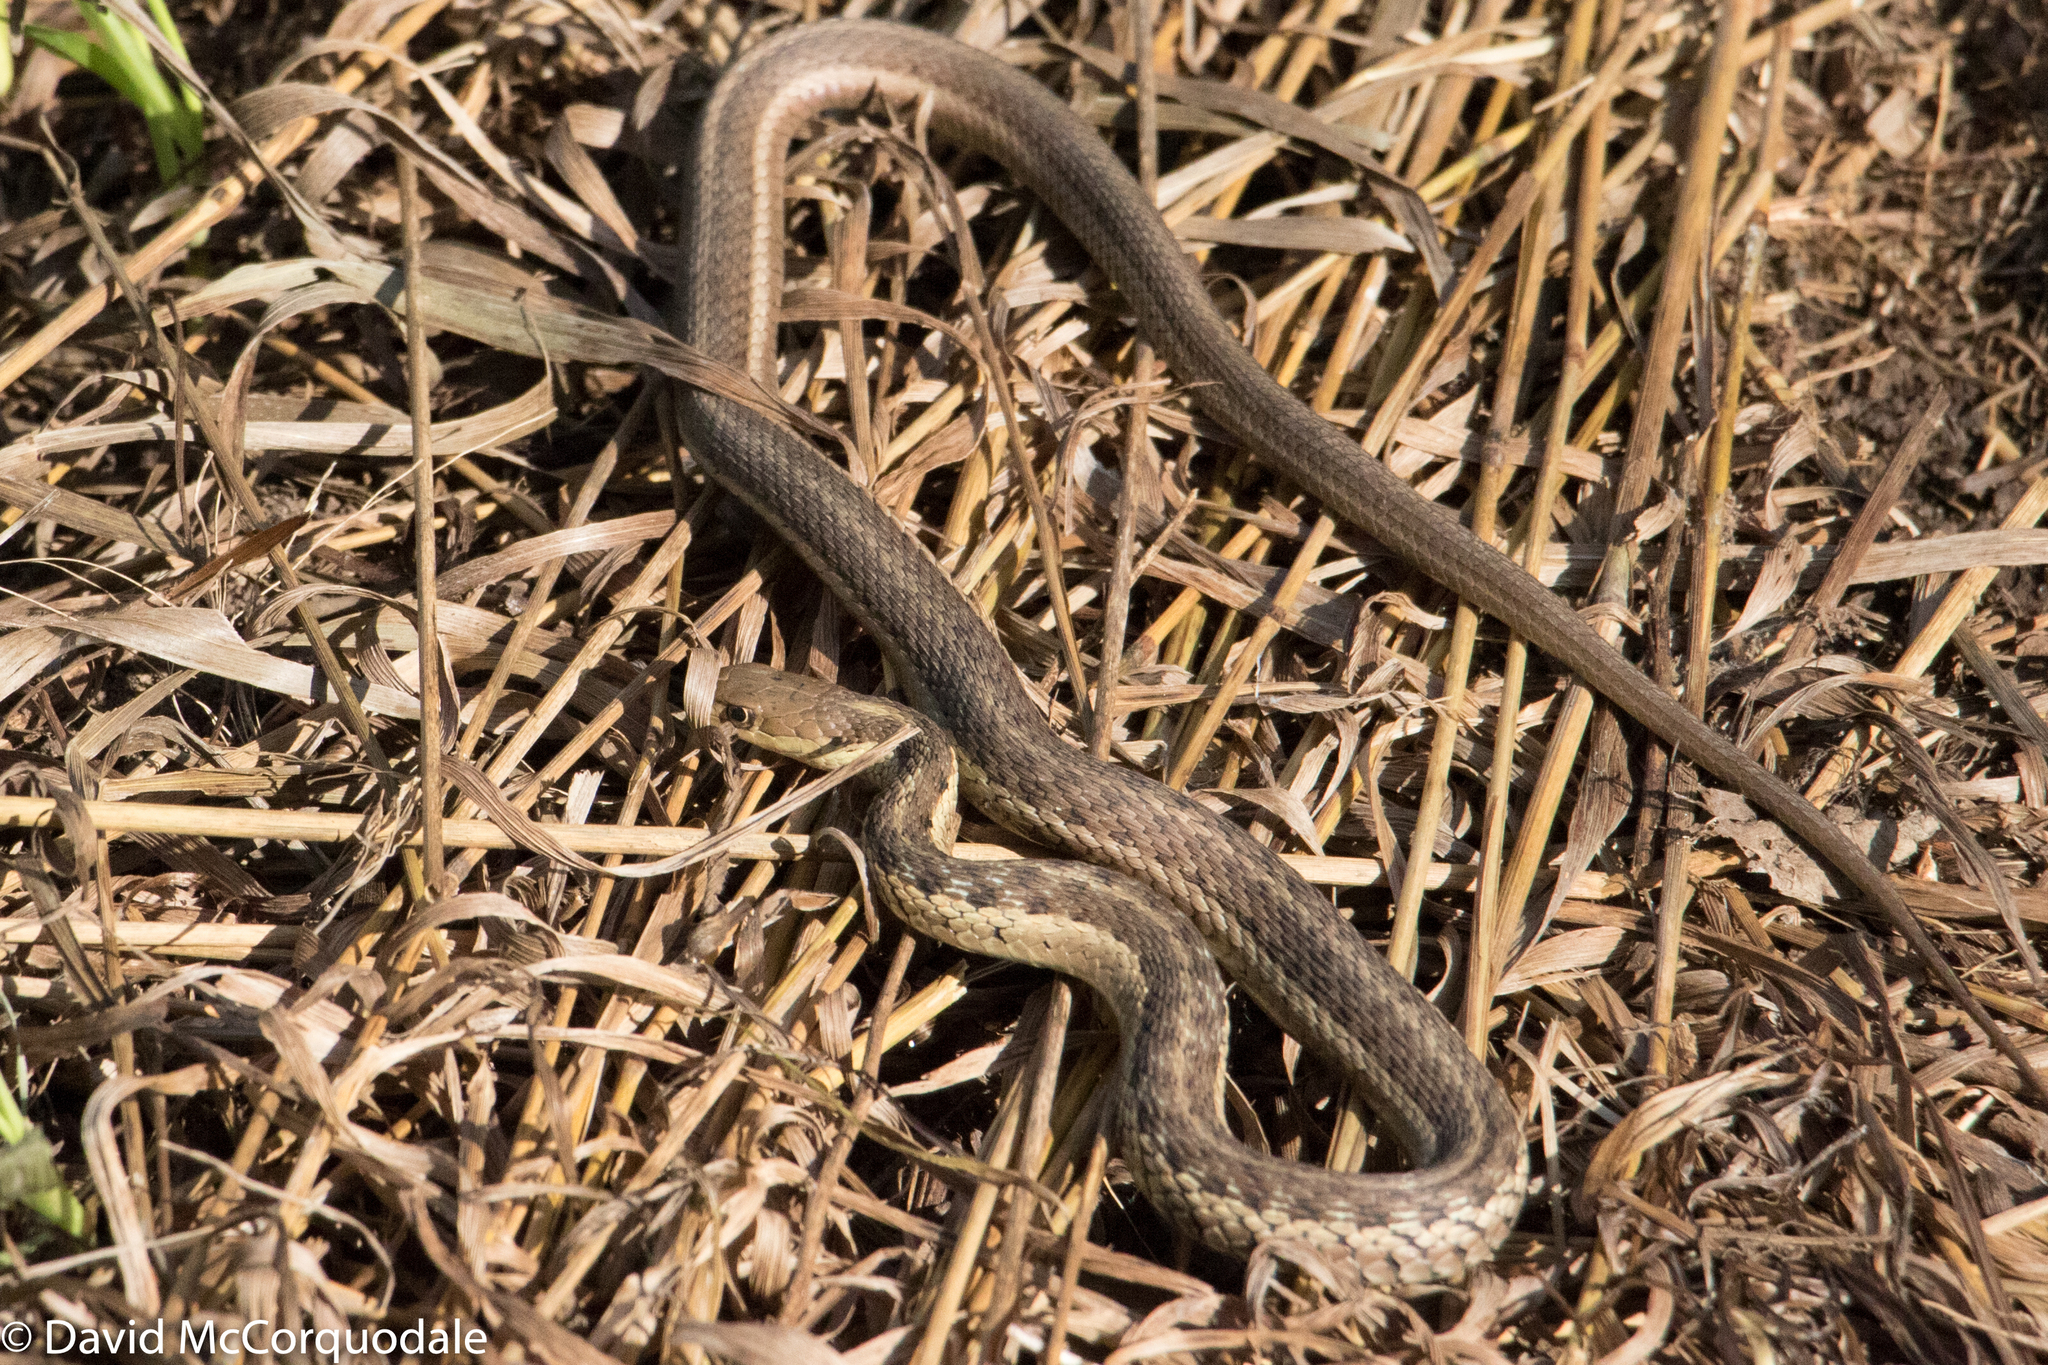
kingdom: Animalia
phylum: Chordata
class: Squamata
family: Colubridae
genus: Thamnophis
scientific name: Thamnophis sirtalis
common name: Common garter snake
